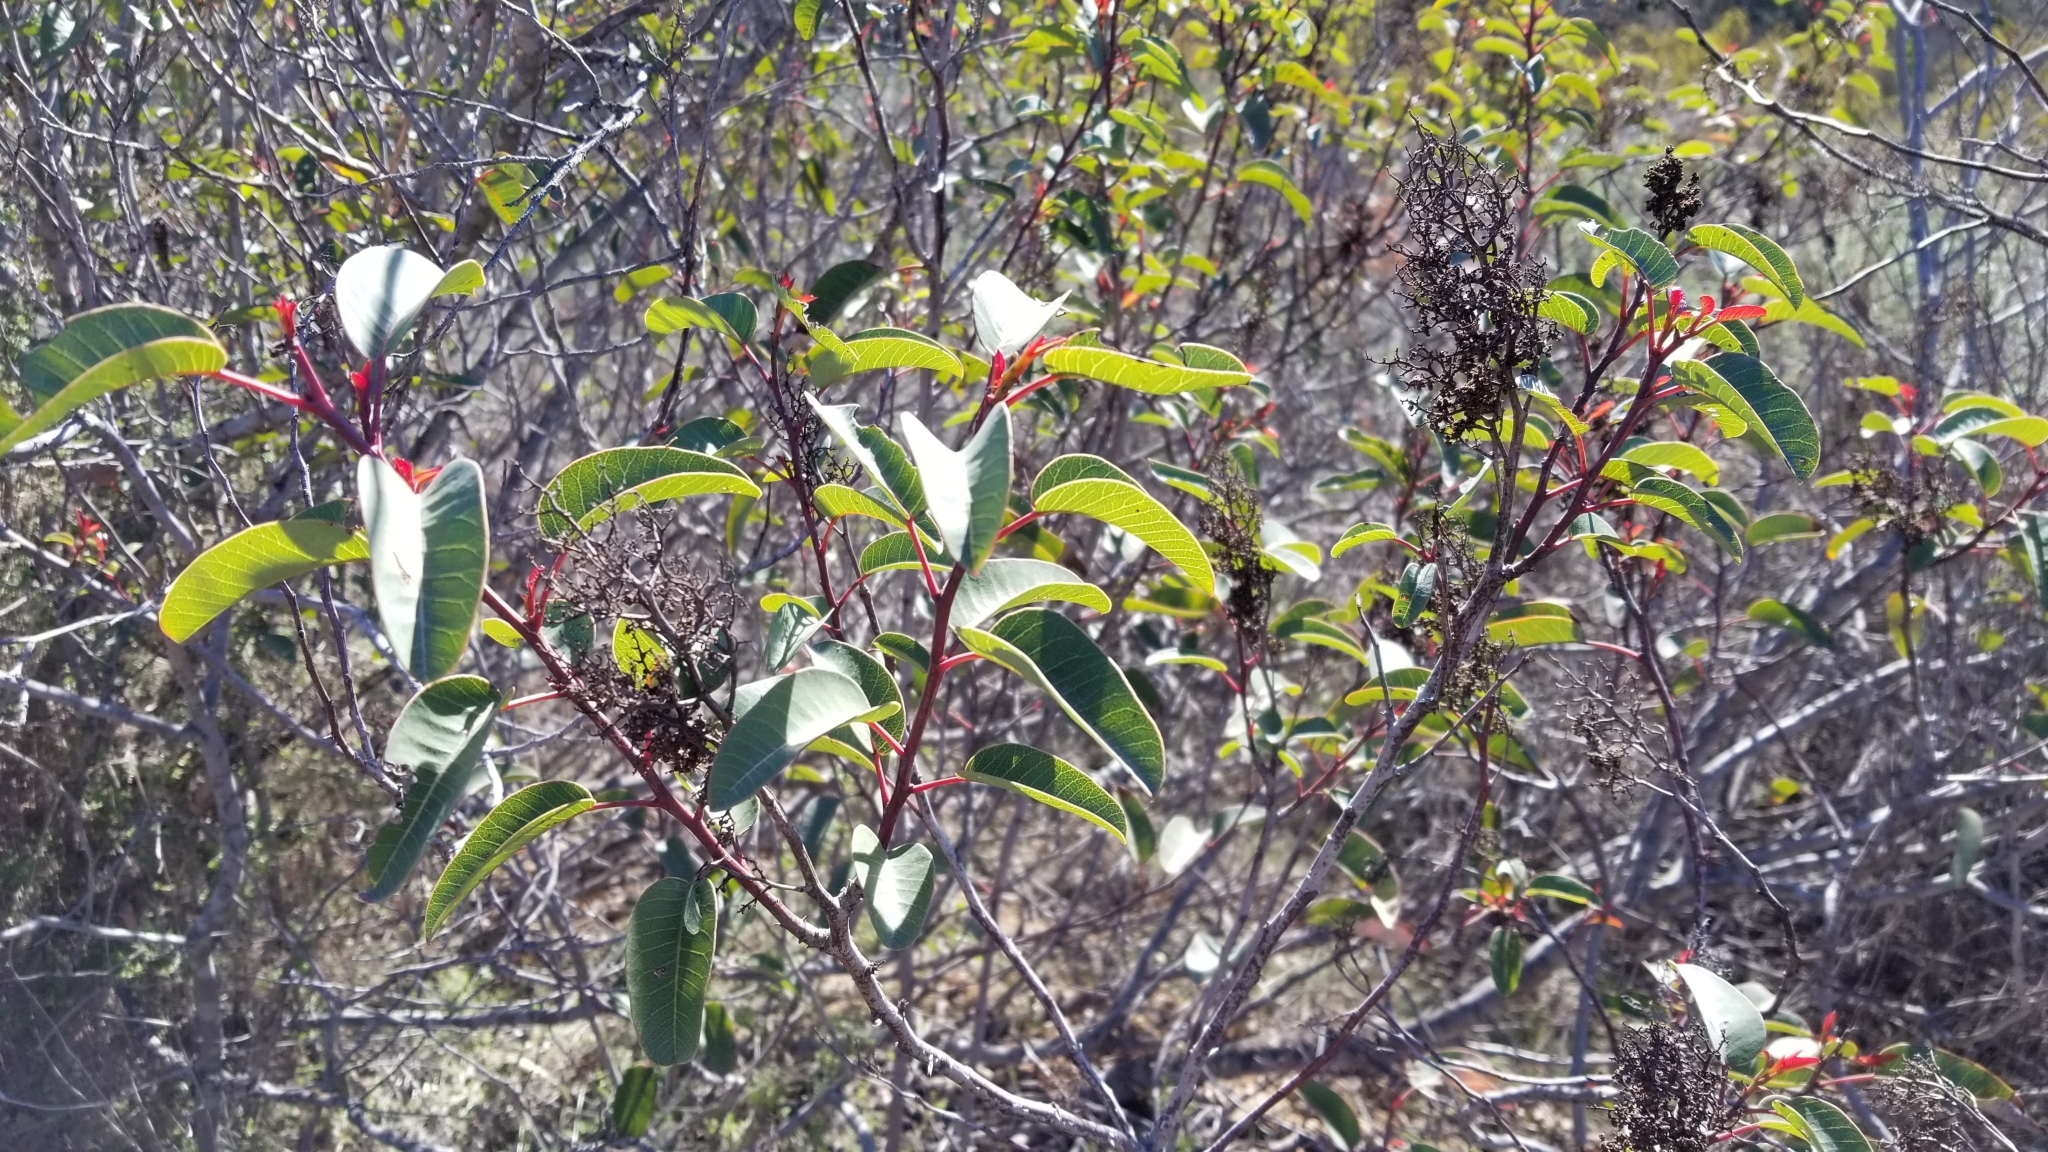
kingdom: Plantae
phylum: Tracheophyta
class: Magnoliopsida
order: Sapindales
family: Anacardiaceae
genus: Malosma
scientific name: Malosma laurina
